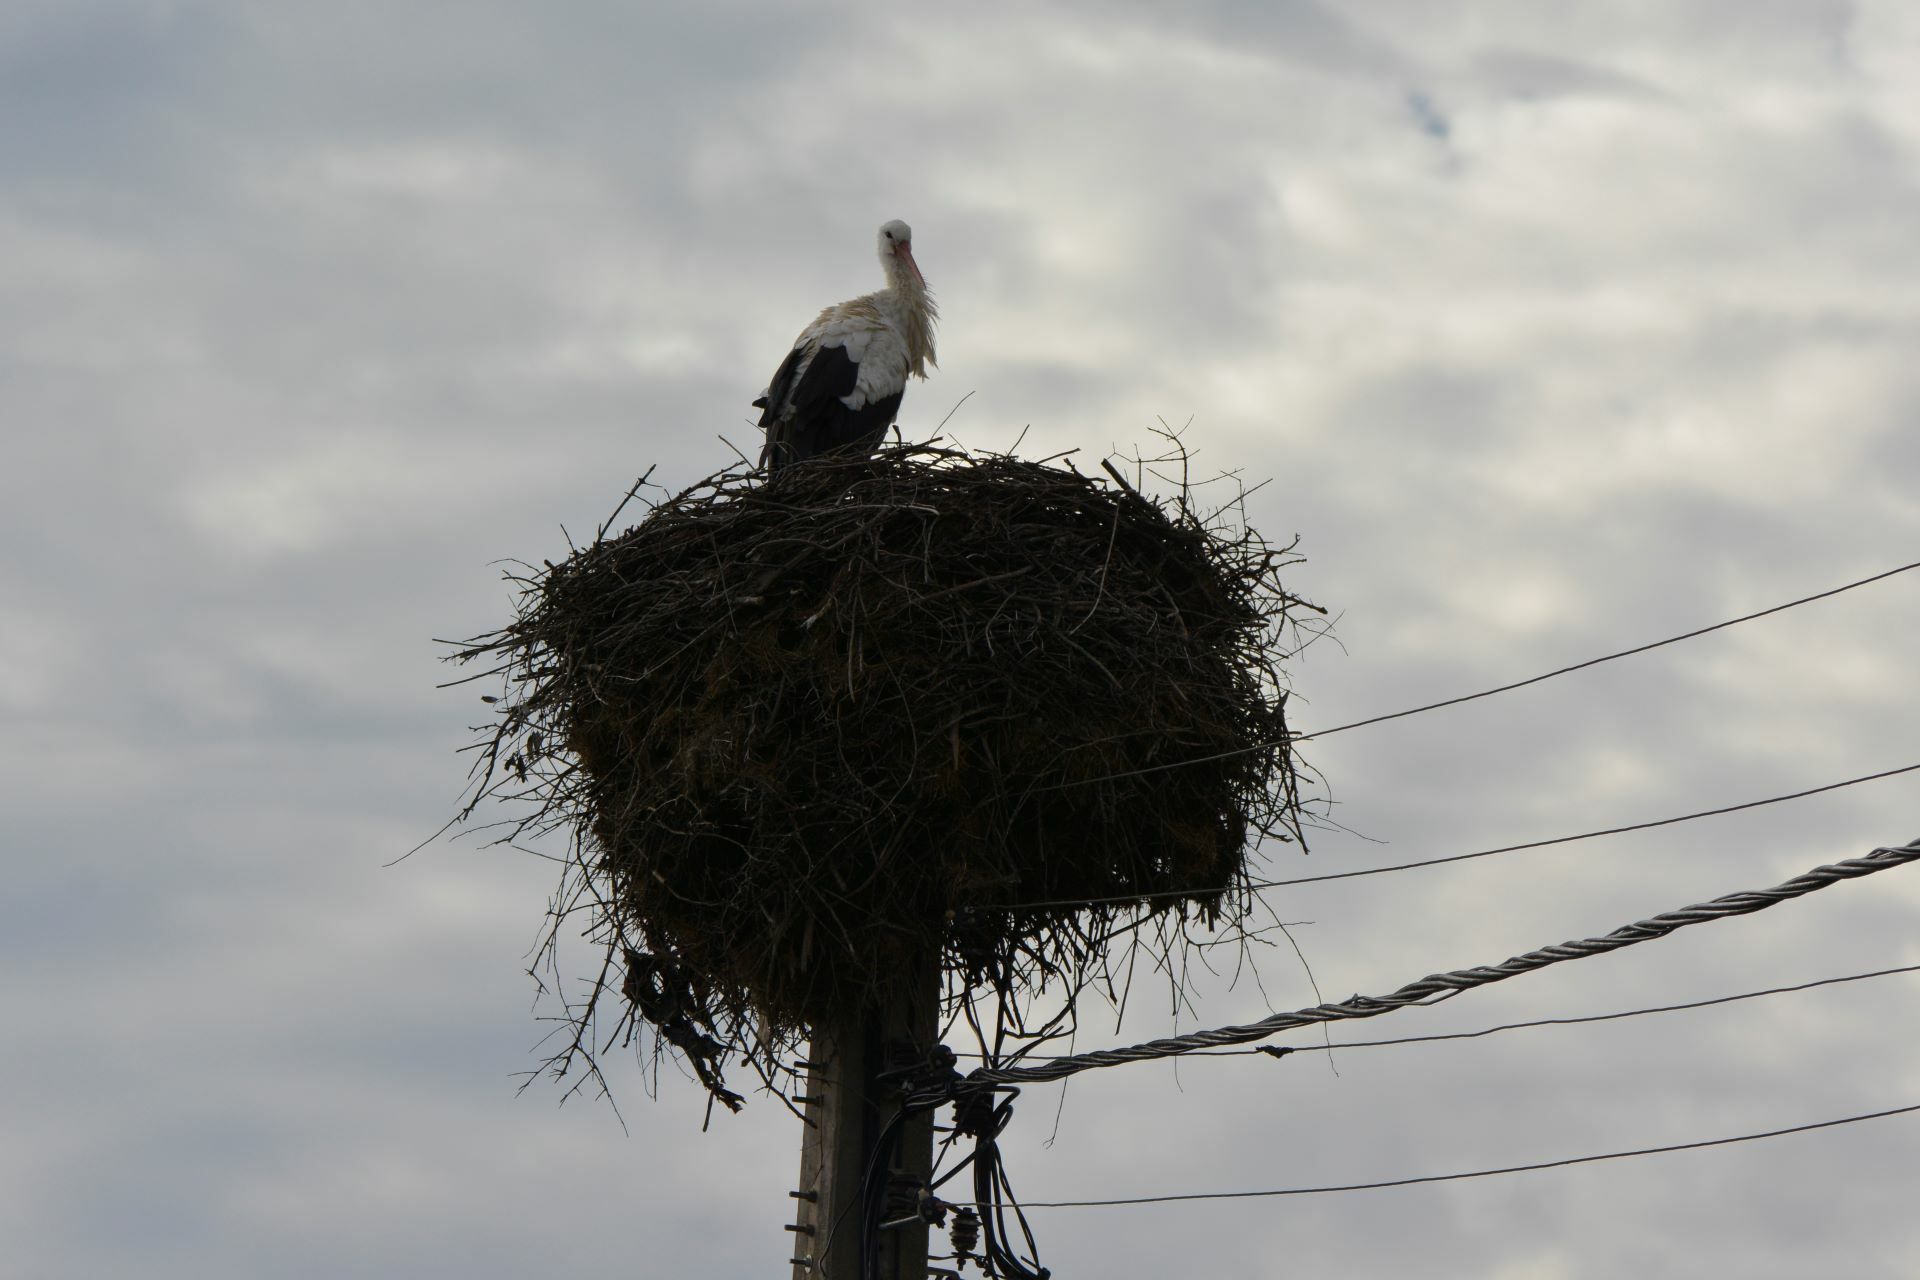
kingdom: Animalia
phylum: Chordata
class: Aves
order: Ciconiiformes
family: Ciconiidae
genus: Ciconia
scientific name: Ciconia ciconia
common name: White stork
